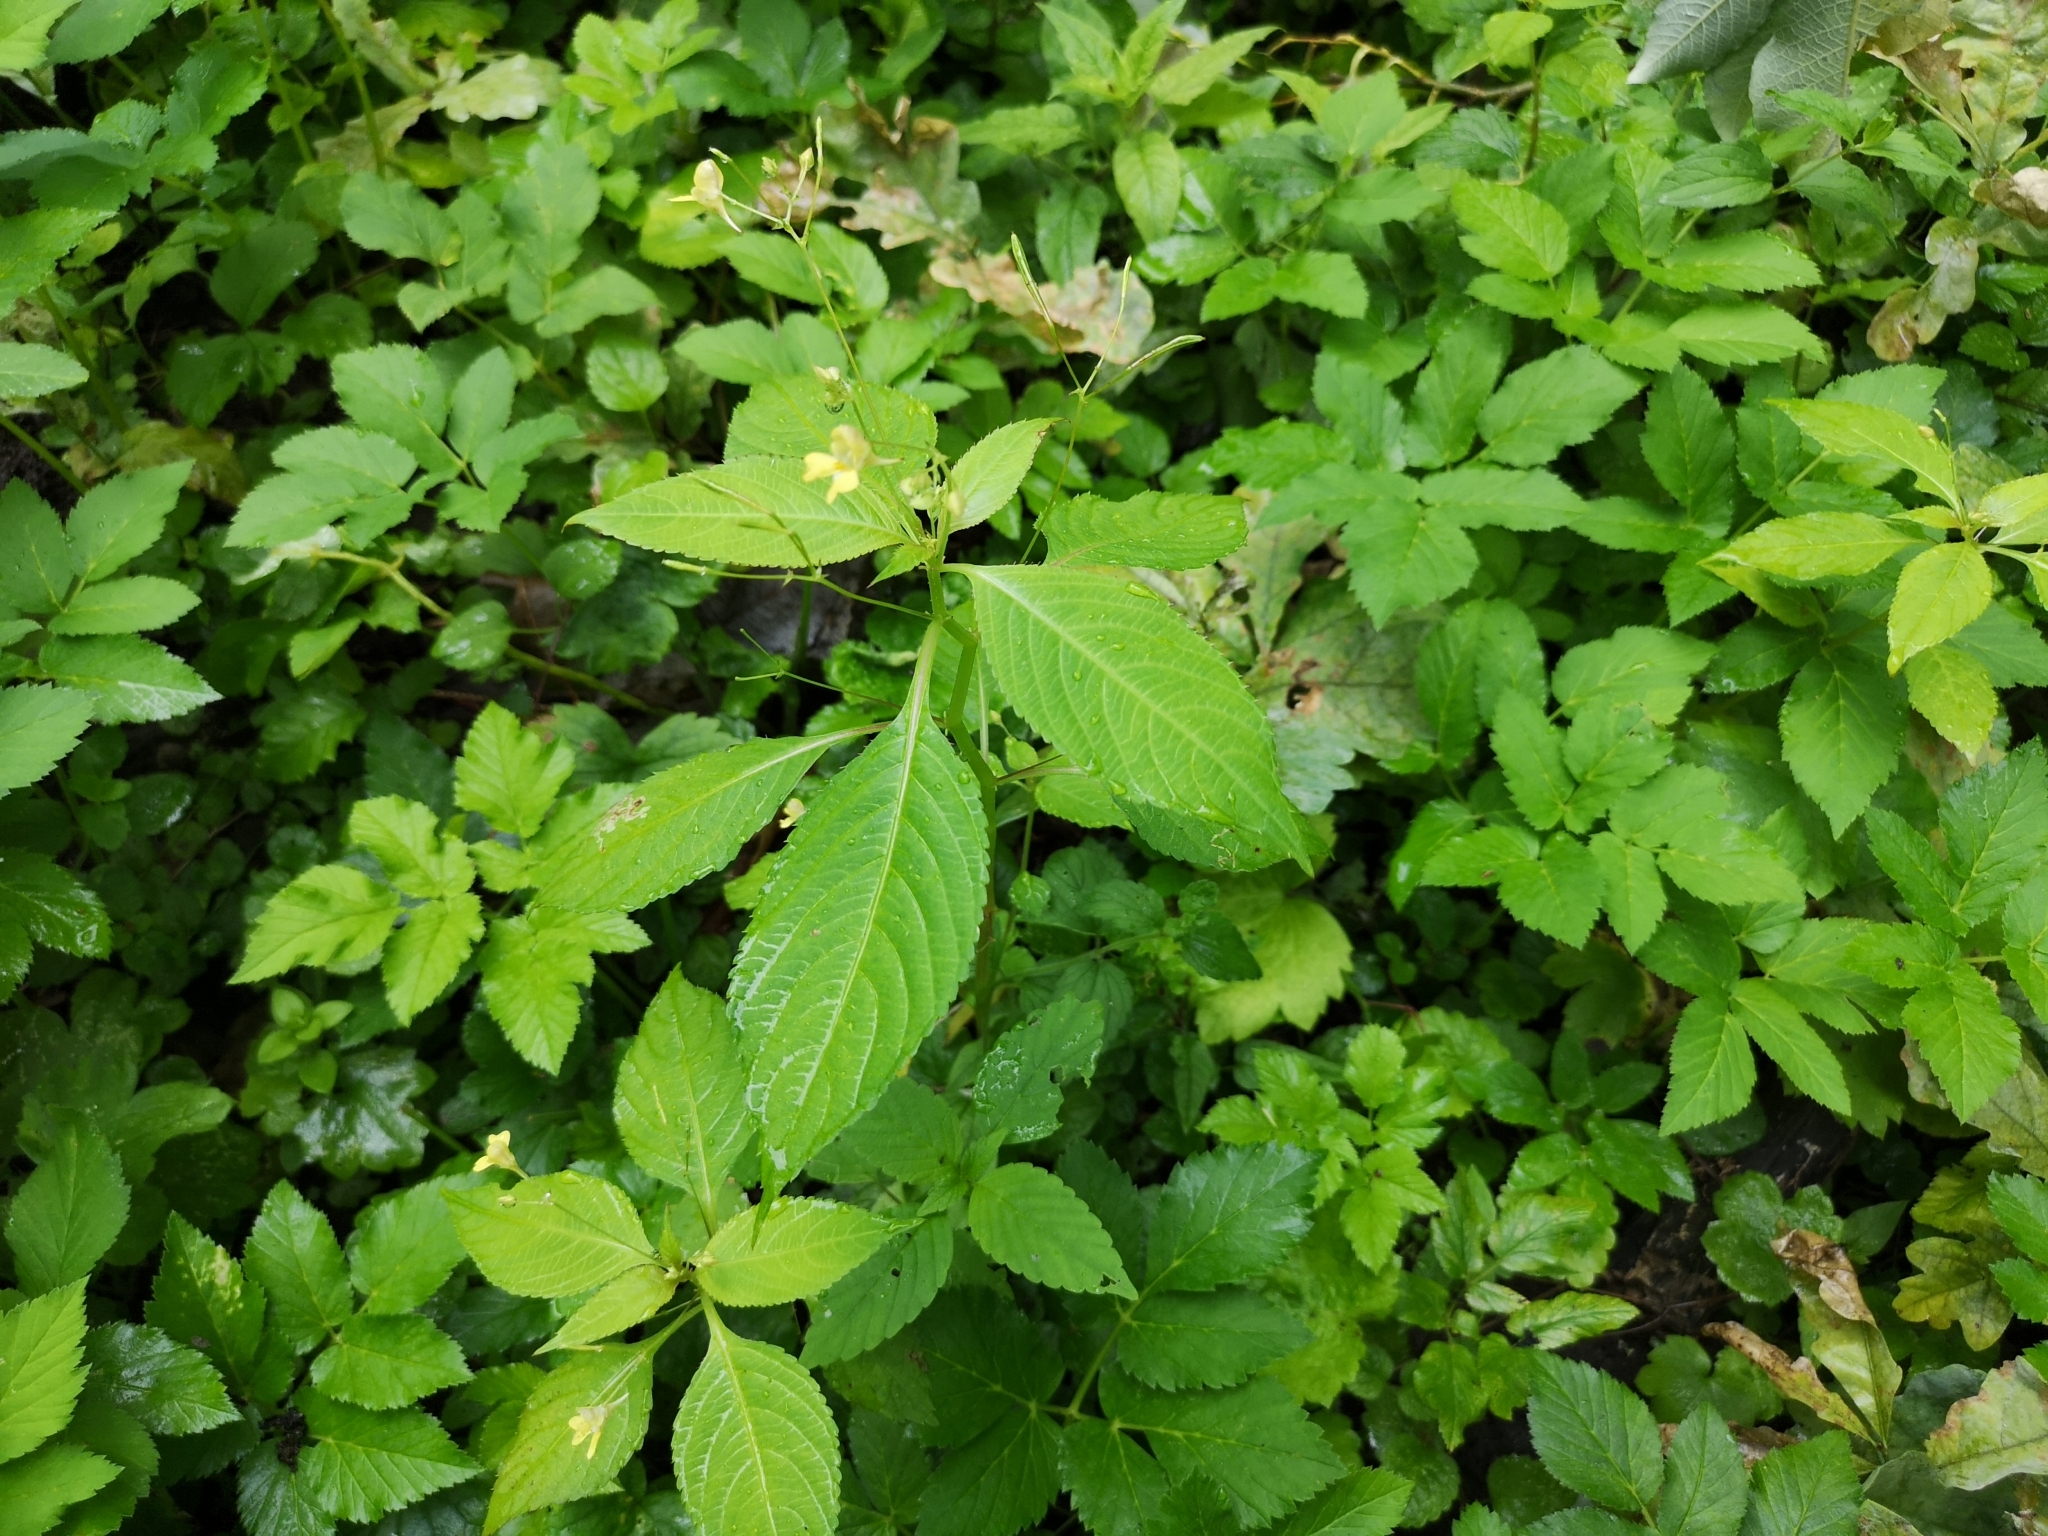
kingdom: Plantae
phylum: Tracheophyta
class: Magnoliopsida
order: Ericales
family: Balsaminaceae
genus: Impatiens
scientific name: Impatiens parviflora
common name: Small balsam
